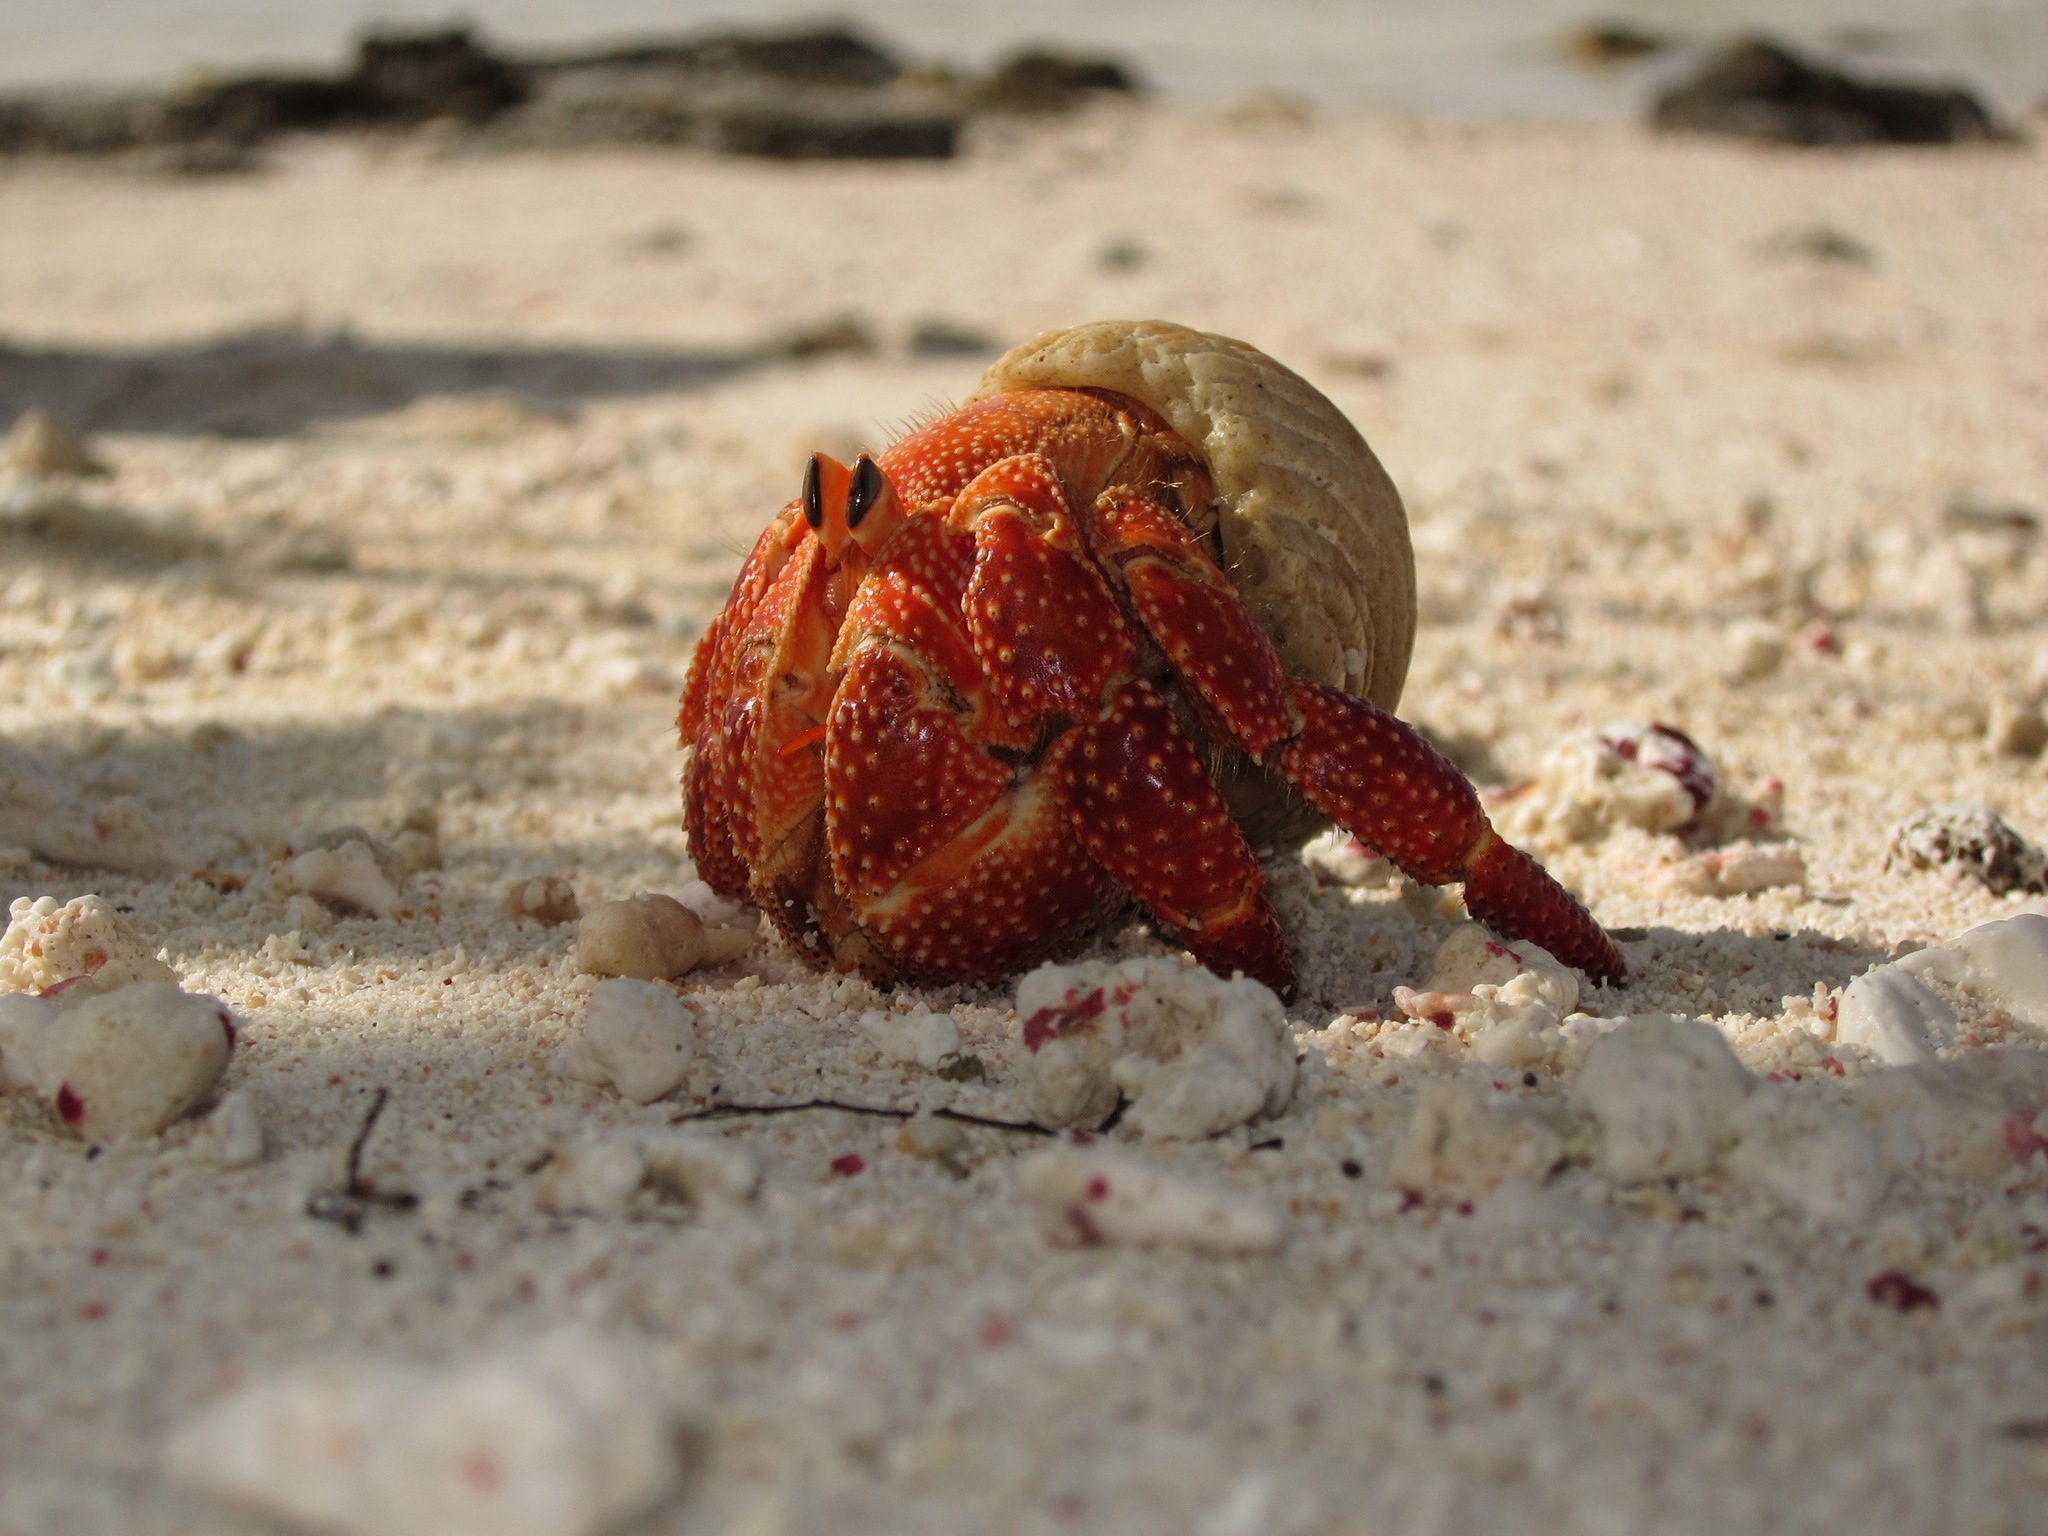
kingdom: Animalia
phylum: Arthropoda
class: Malacostraca
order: Decapoda
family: Coenobitidae
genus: Coenobita
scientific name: Coenobita perlatus
